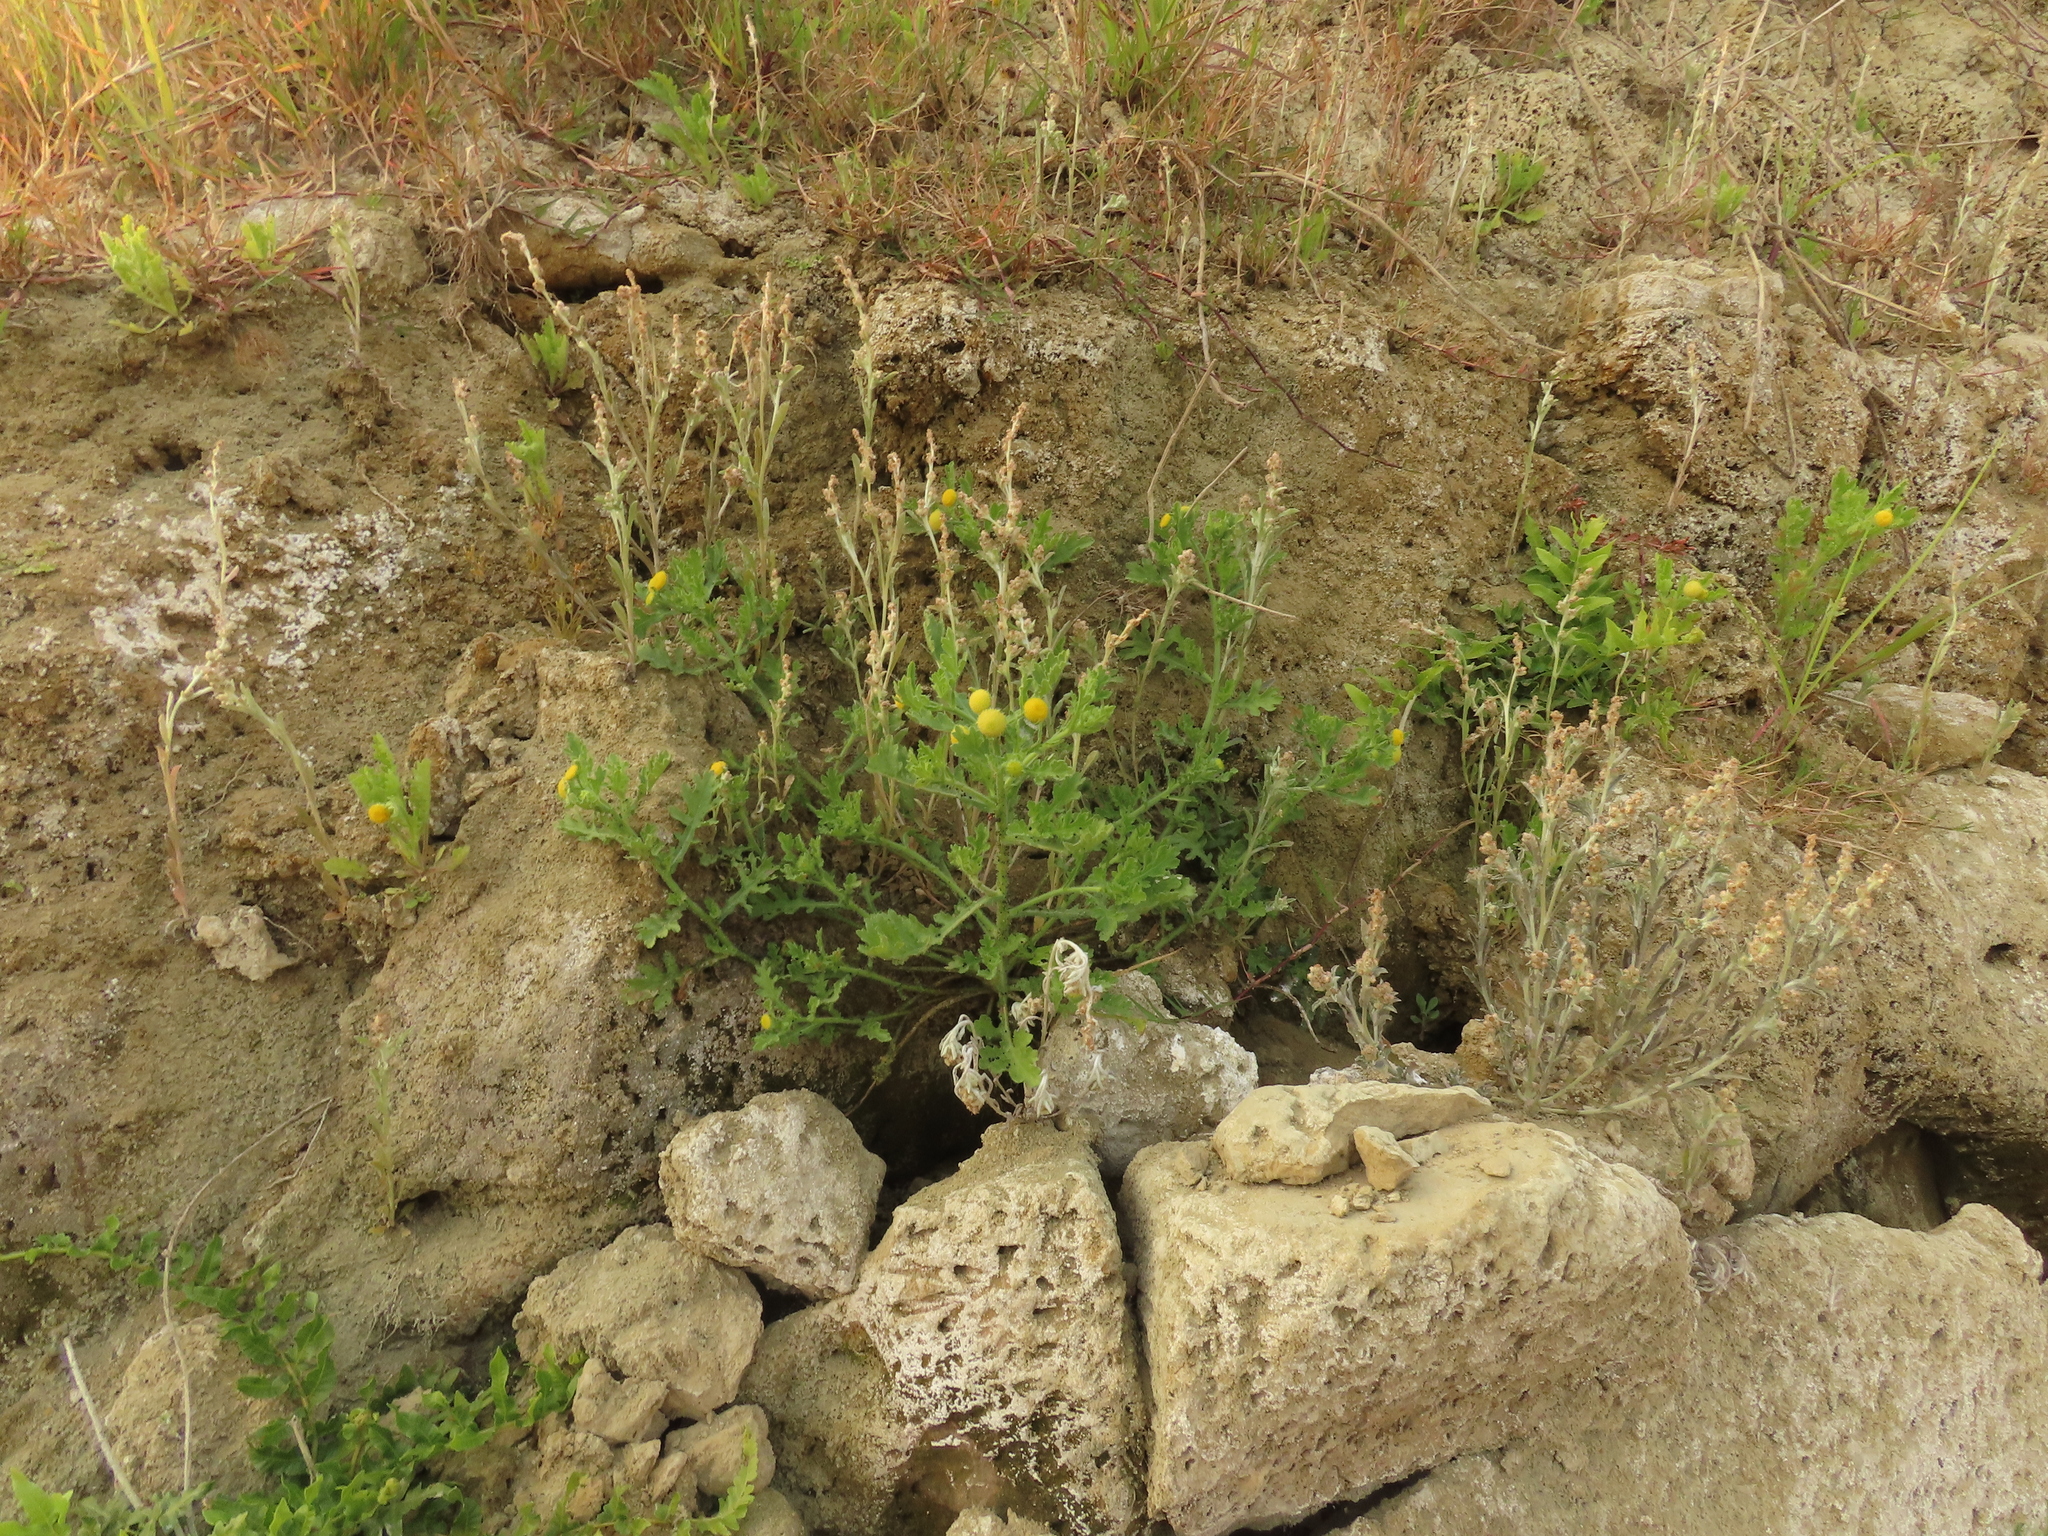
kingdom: Plantae
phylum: Tracheophyta
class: Magnoliopsida
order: Asterales
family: Asteraceae
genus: Grangea
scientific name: Grangea maderaspatana
